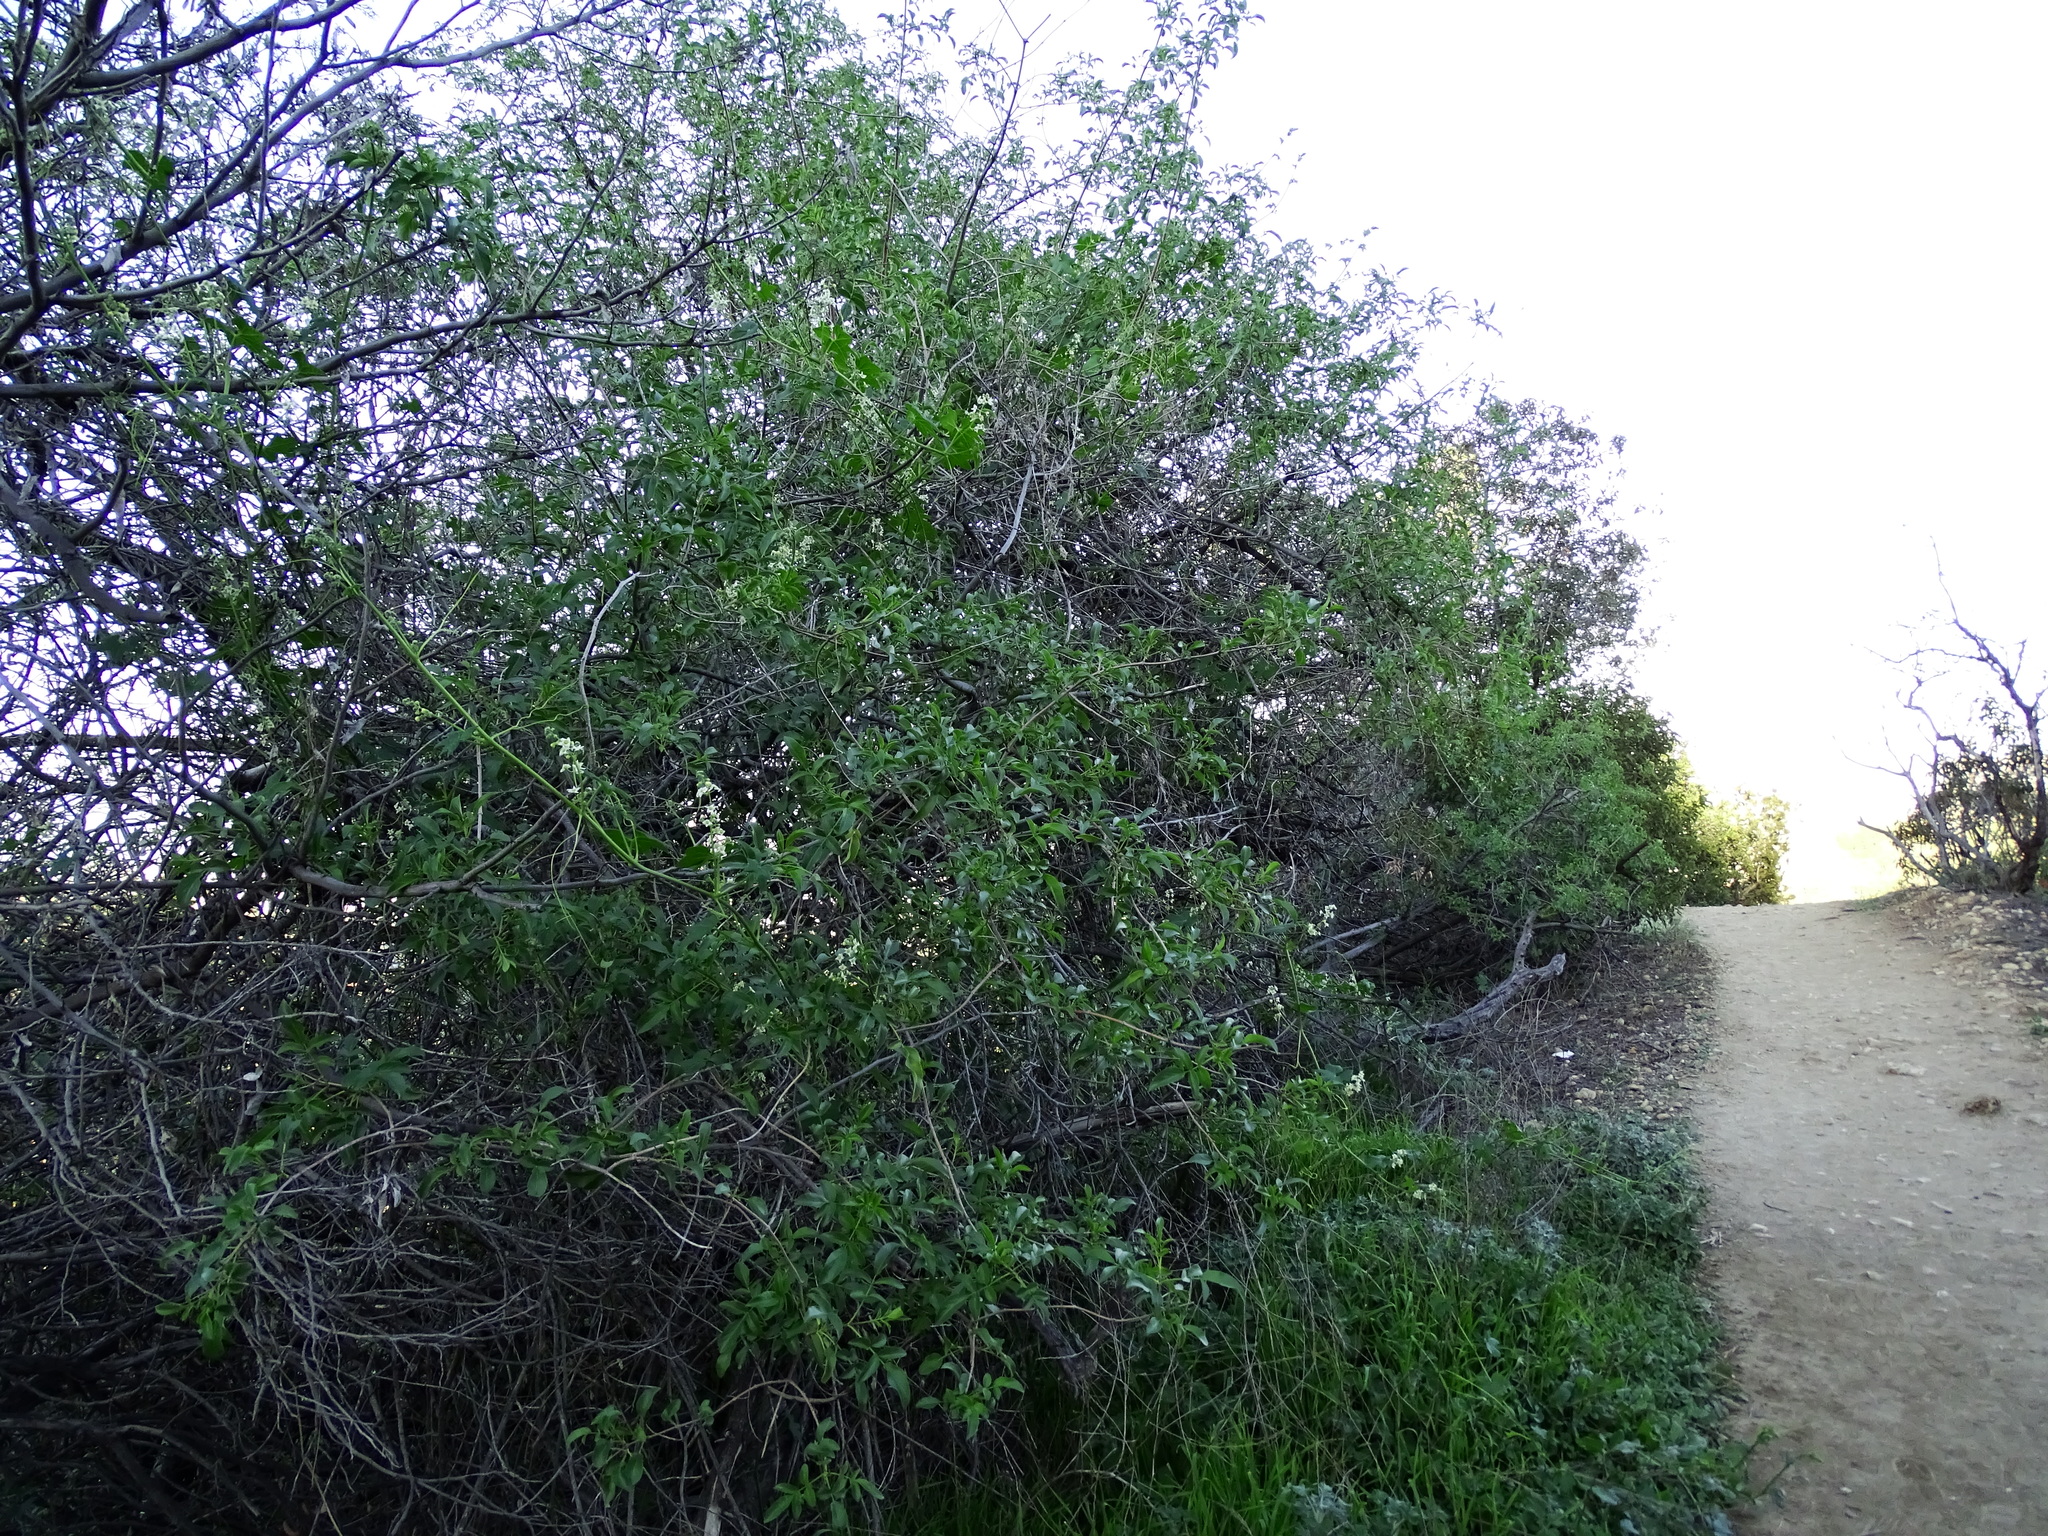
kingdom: Plantae
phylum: Tracheophyta
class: Magnoliopsida
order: Dipsacales
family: Viburnaceae
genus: Sambucus
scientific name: Sambucus cerulea
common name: Blue elder
